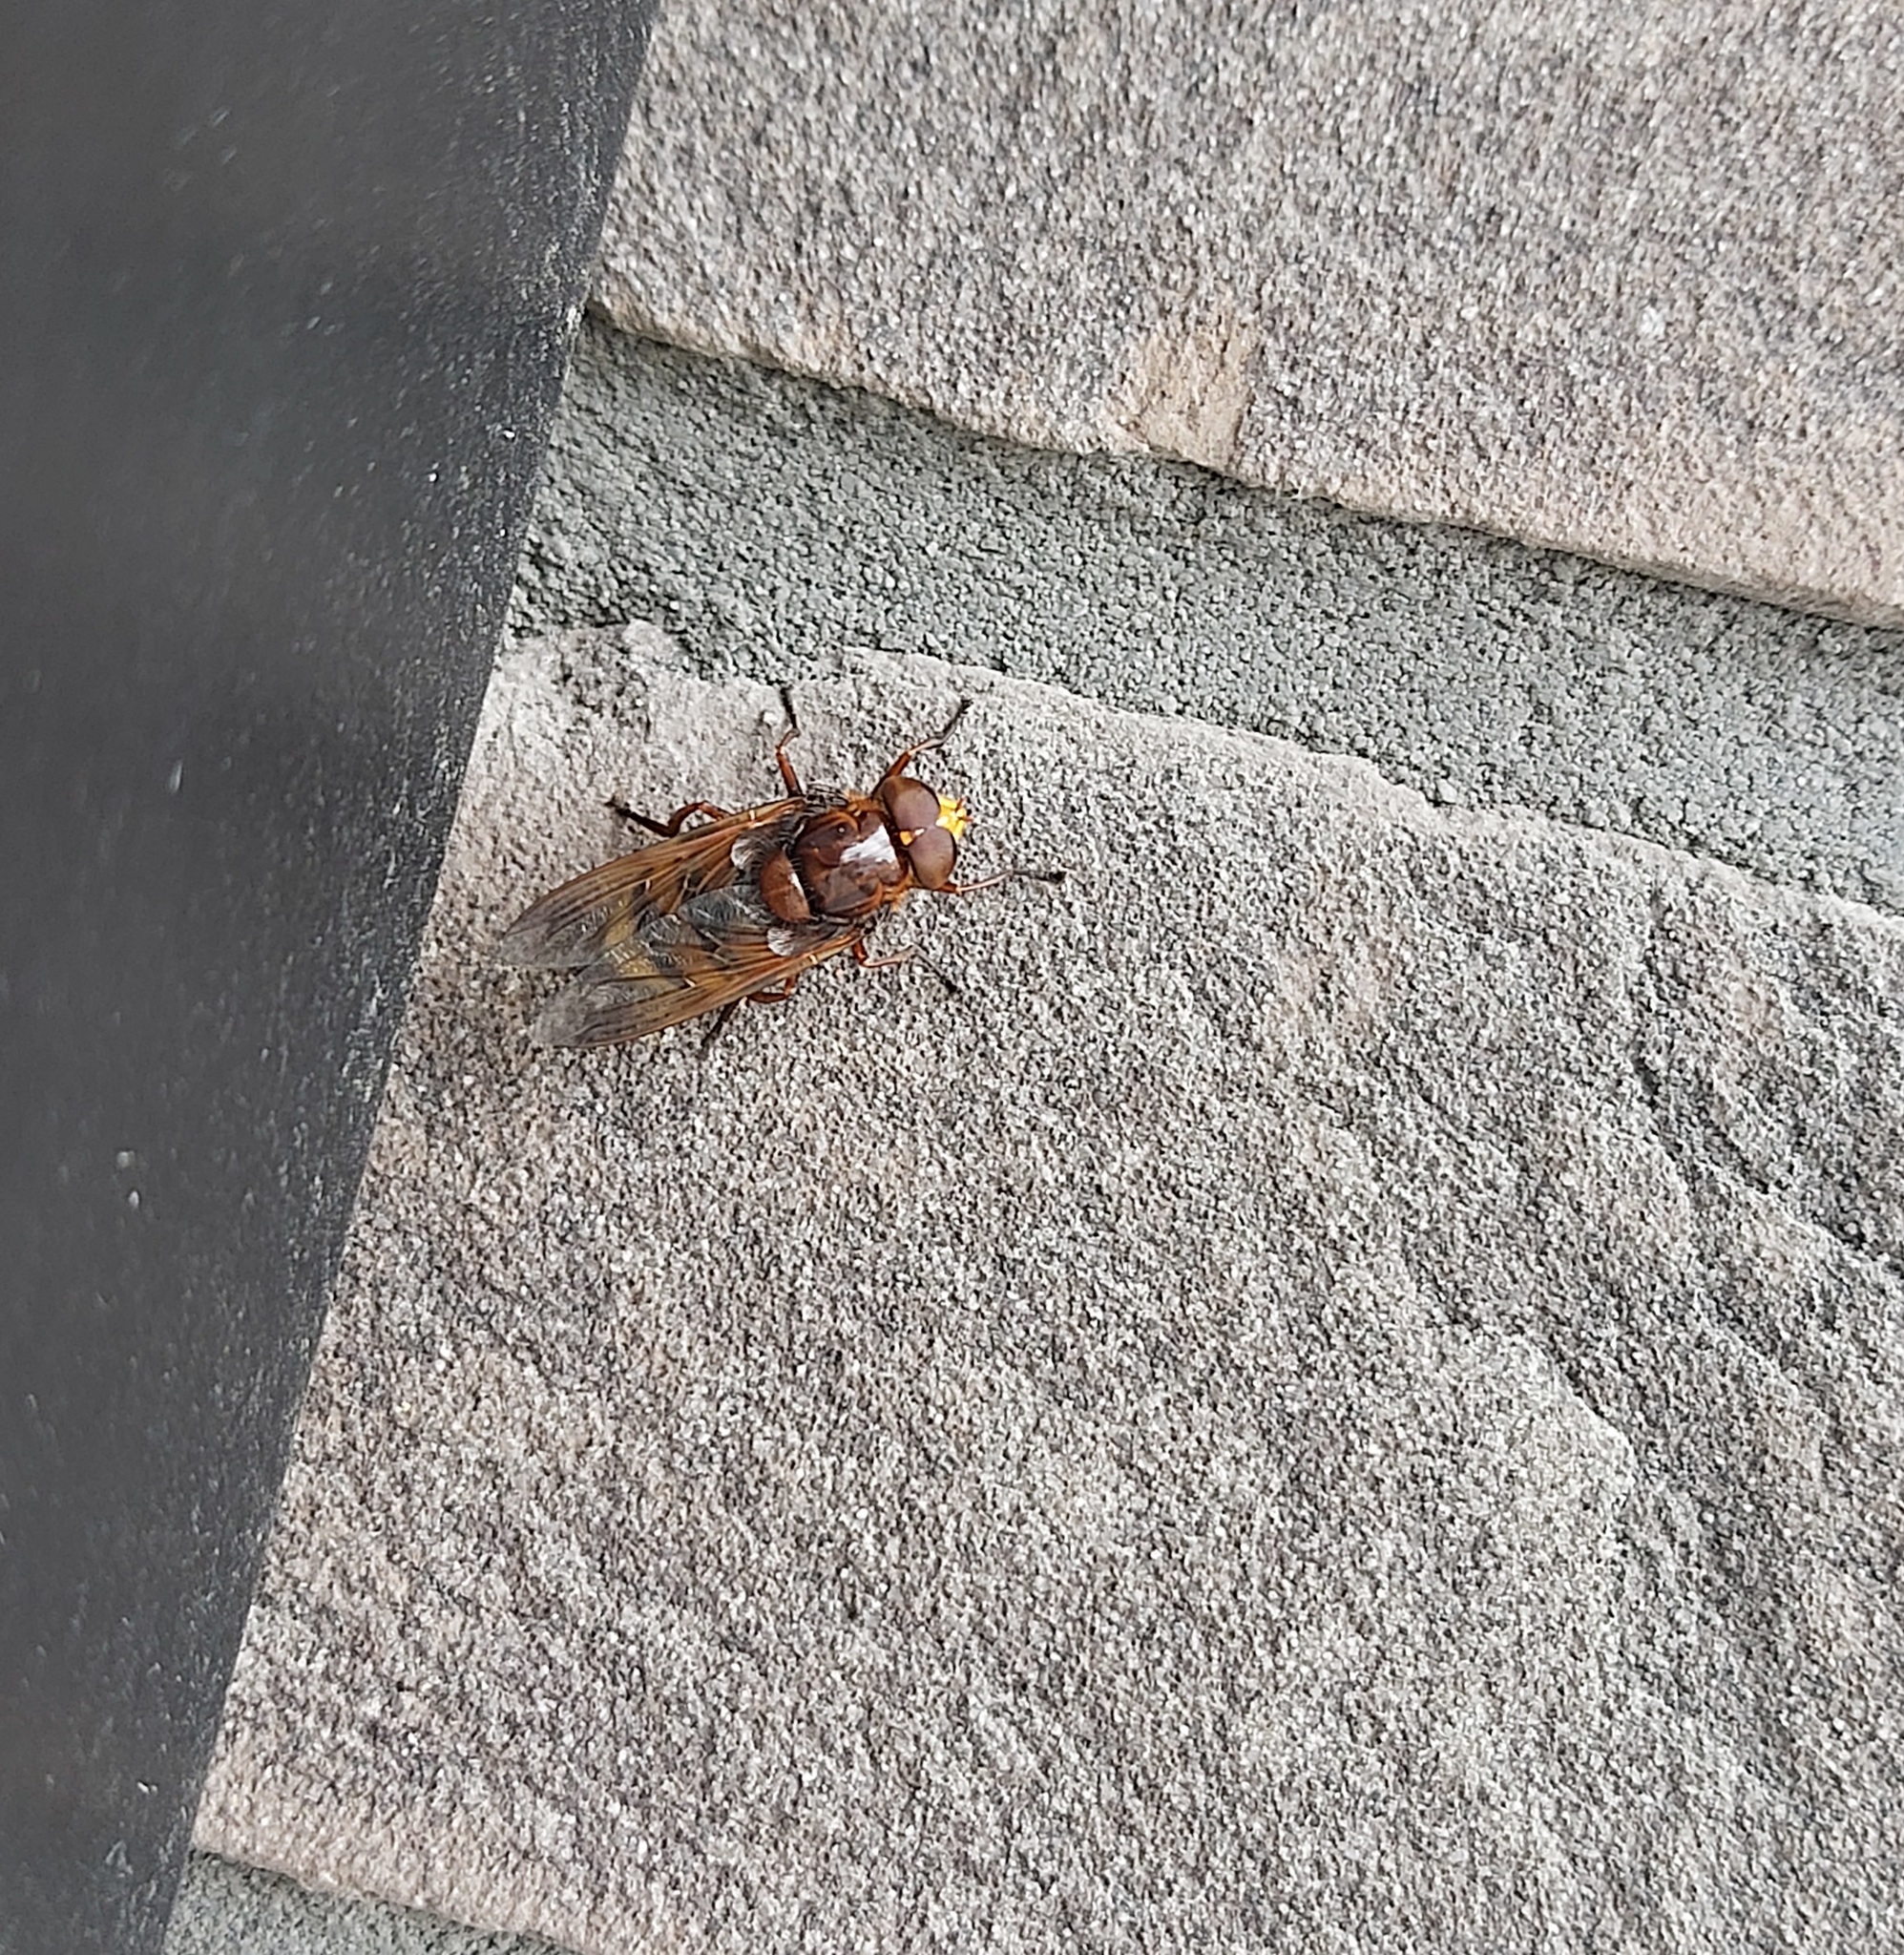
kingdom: Animalia
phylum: Arthropoda
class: Insecta
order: Diptera
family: Syrphidae
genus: Volucella
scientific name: Volucella zonaria
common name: Hornet hoverfly
